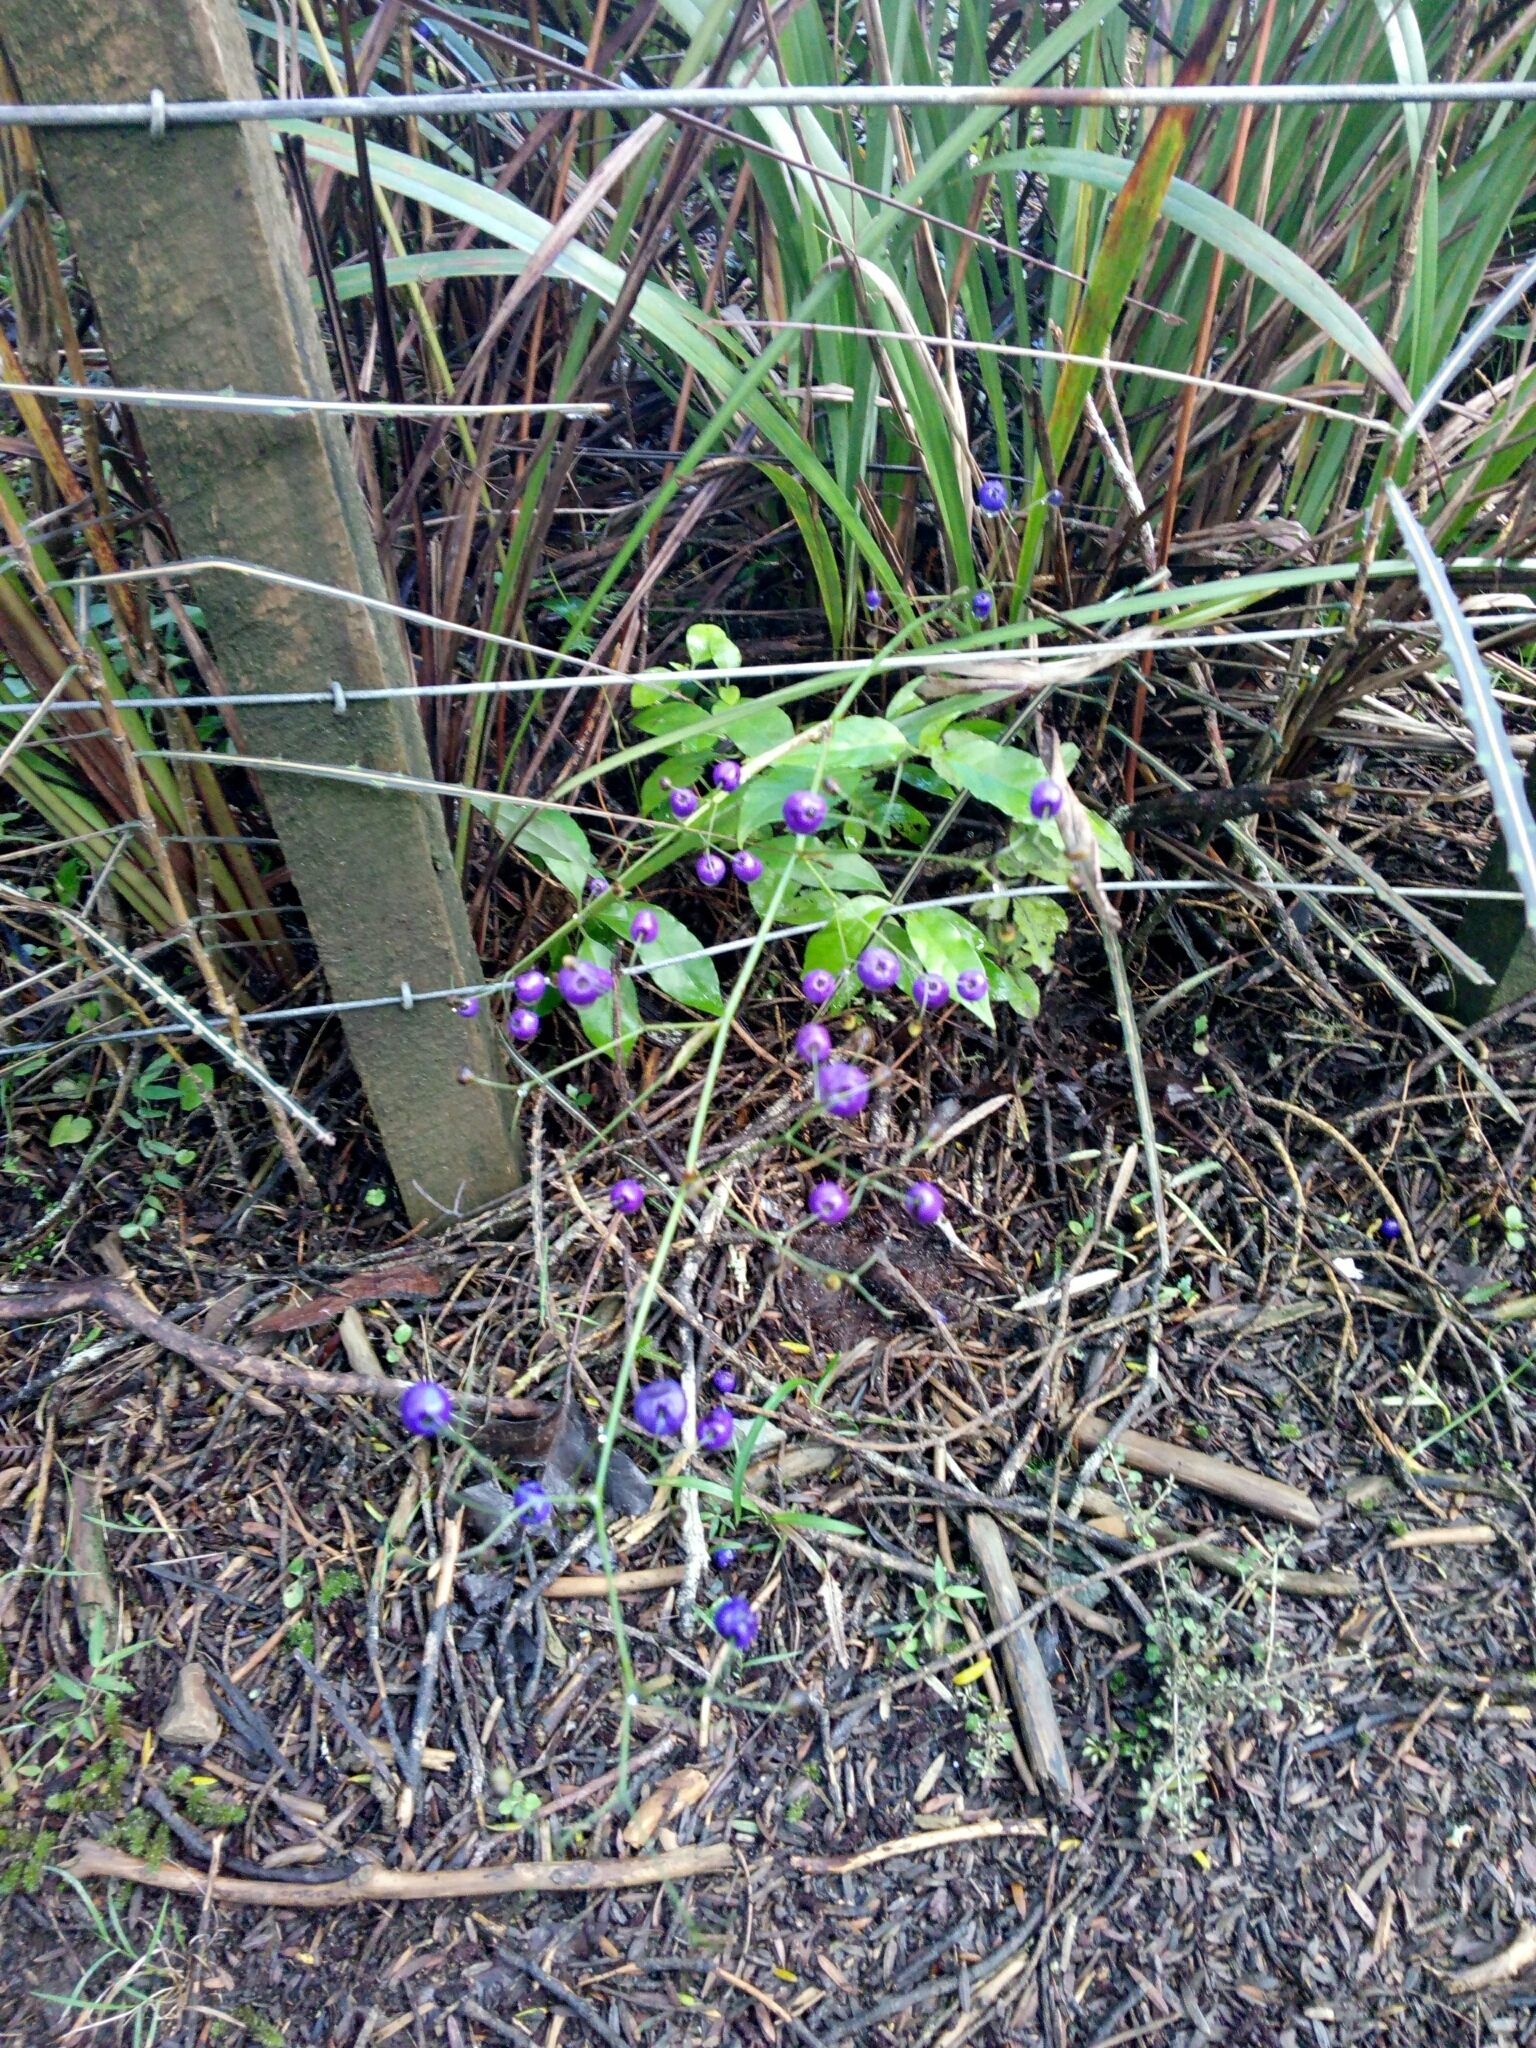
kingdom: Plantae
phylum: Tracheophyta
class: Liliopsida
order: Asparagales
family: Asphodelaceae
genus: Dianella
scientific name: Dianella nigra
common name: New zealand-blueberry
